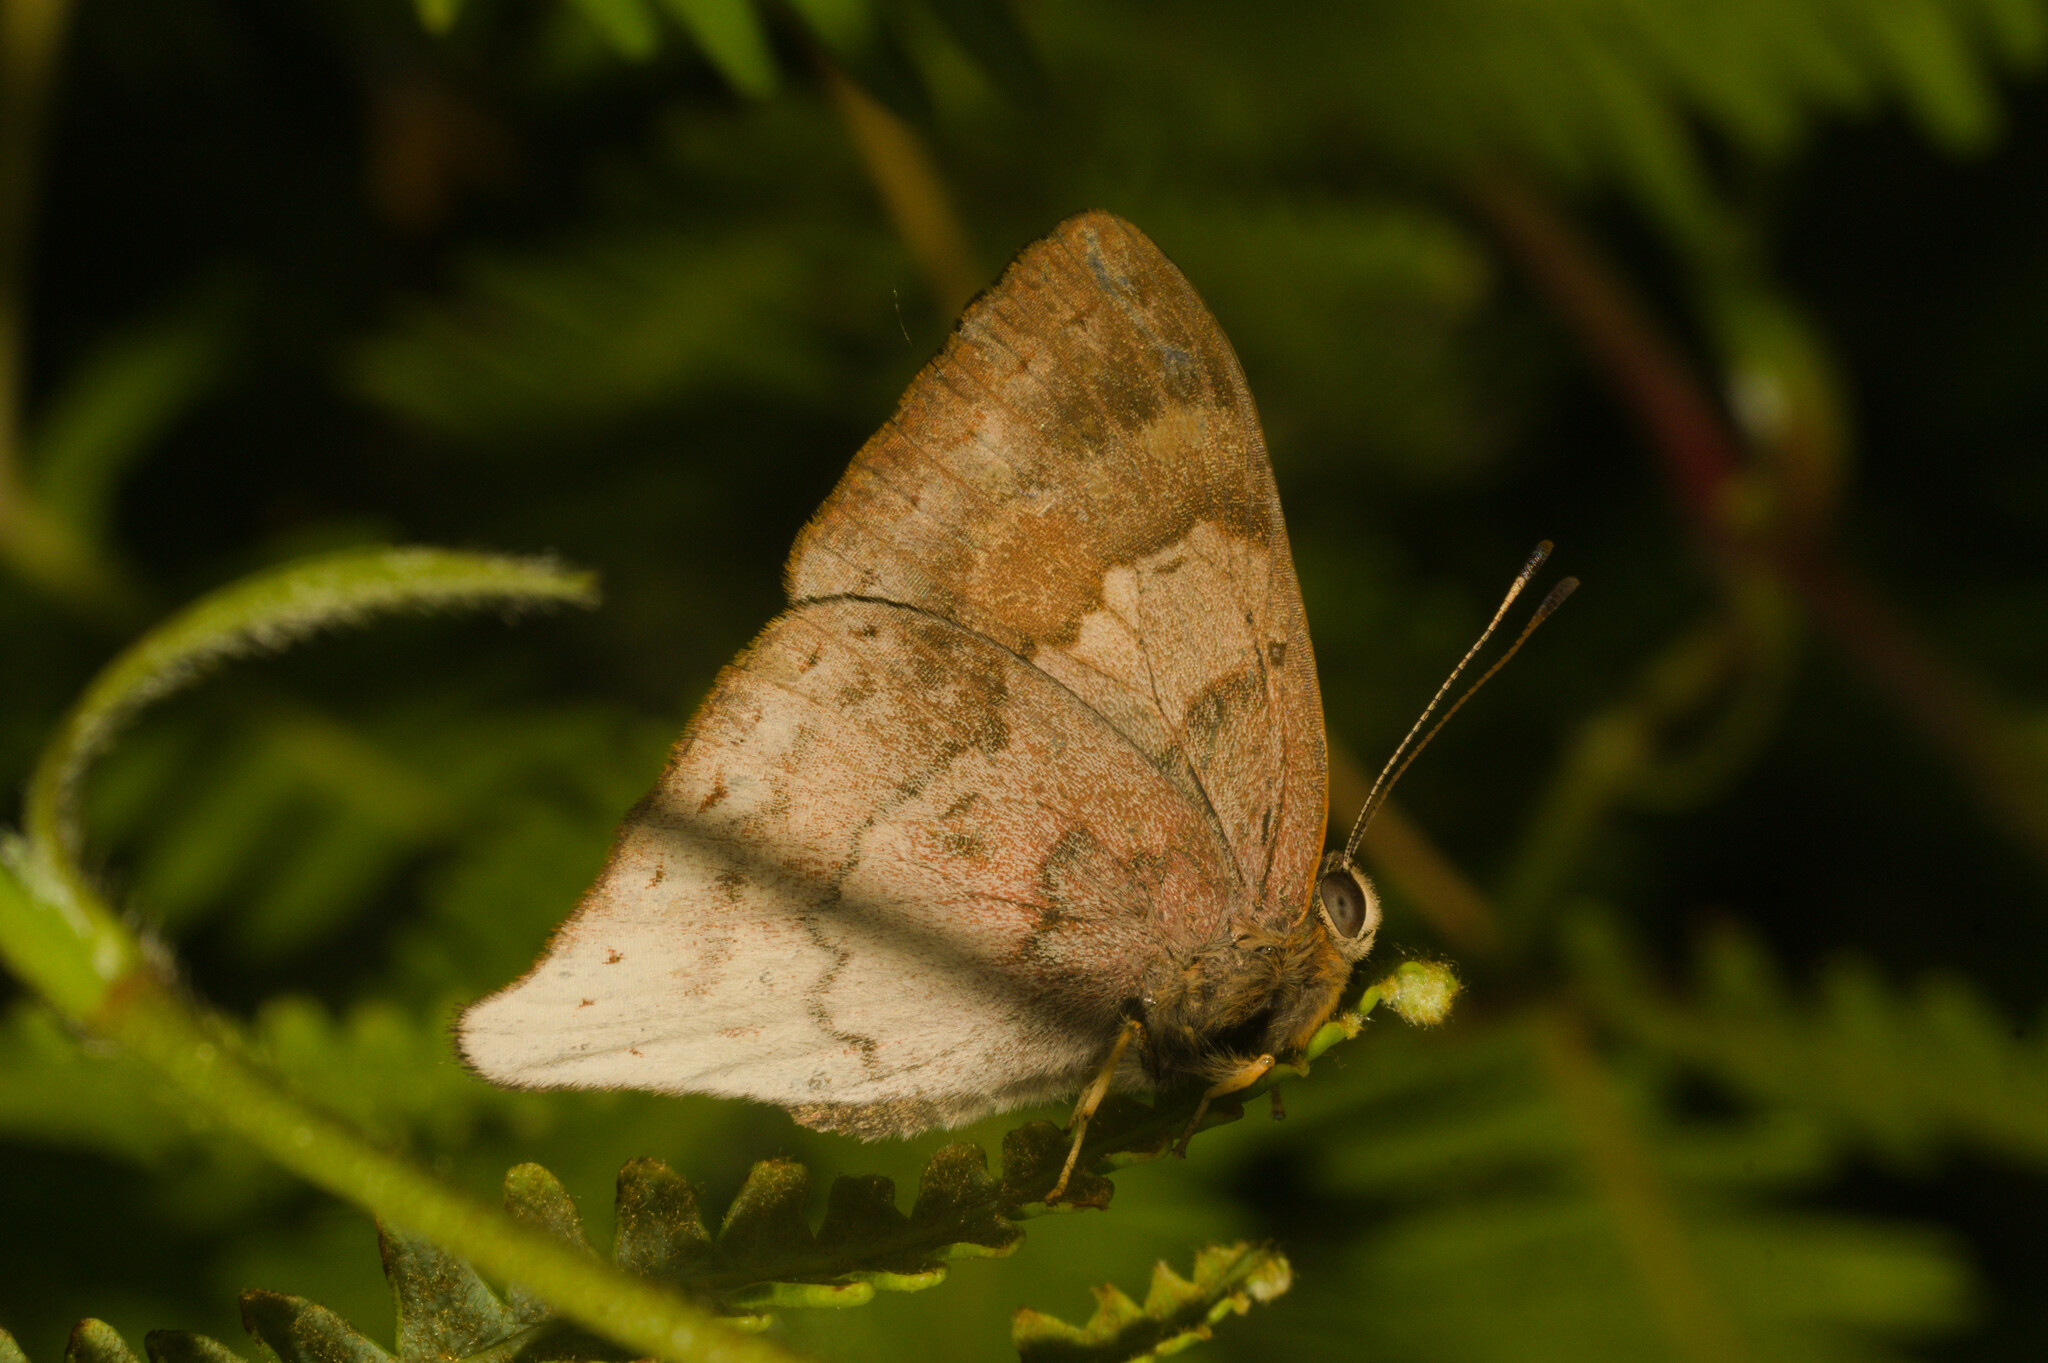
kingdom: Animalia
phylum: Arthropoda
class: Insecta
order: Lepidoptera
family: Lycaenidae
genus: Euselasia
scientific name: Euselasia thucydides
